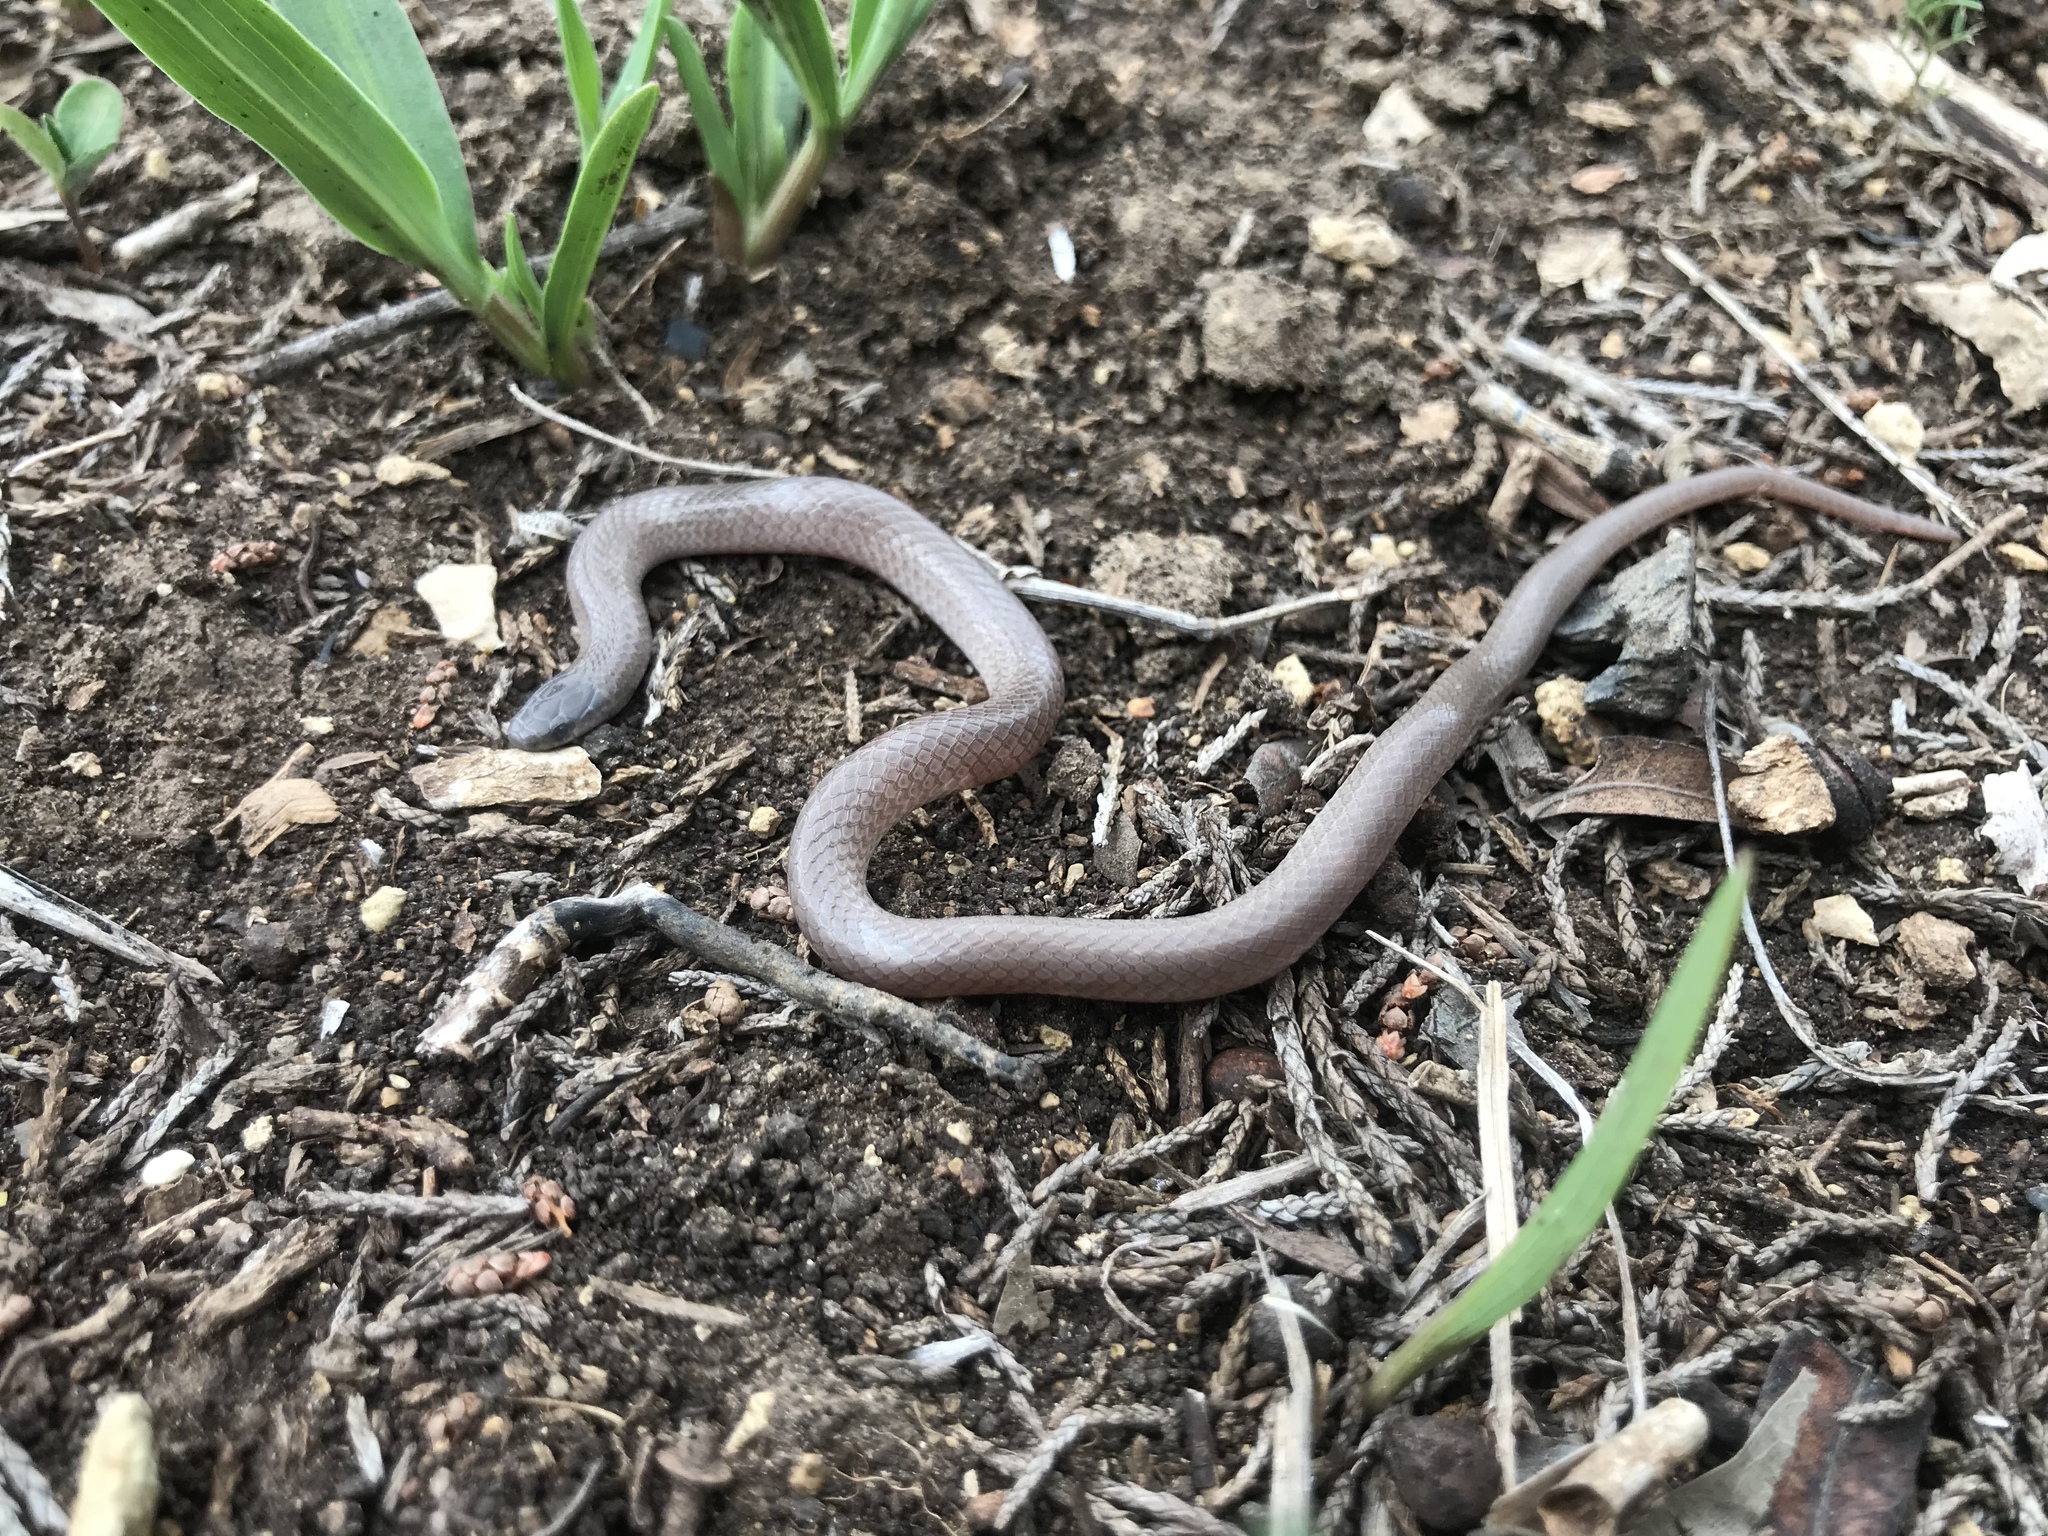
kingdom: Animalia
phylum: Chordata
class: Squamata
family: Colubridae
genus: Tantilla
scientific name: Tantilla gracilis
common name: Flathead snake
